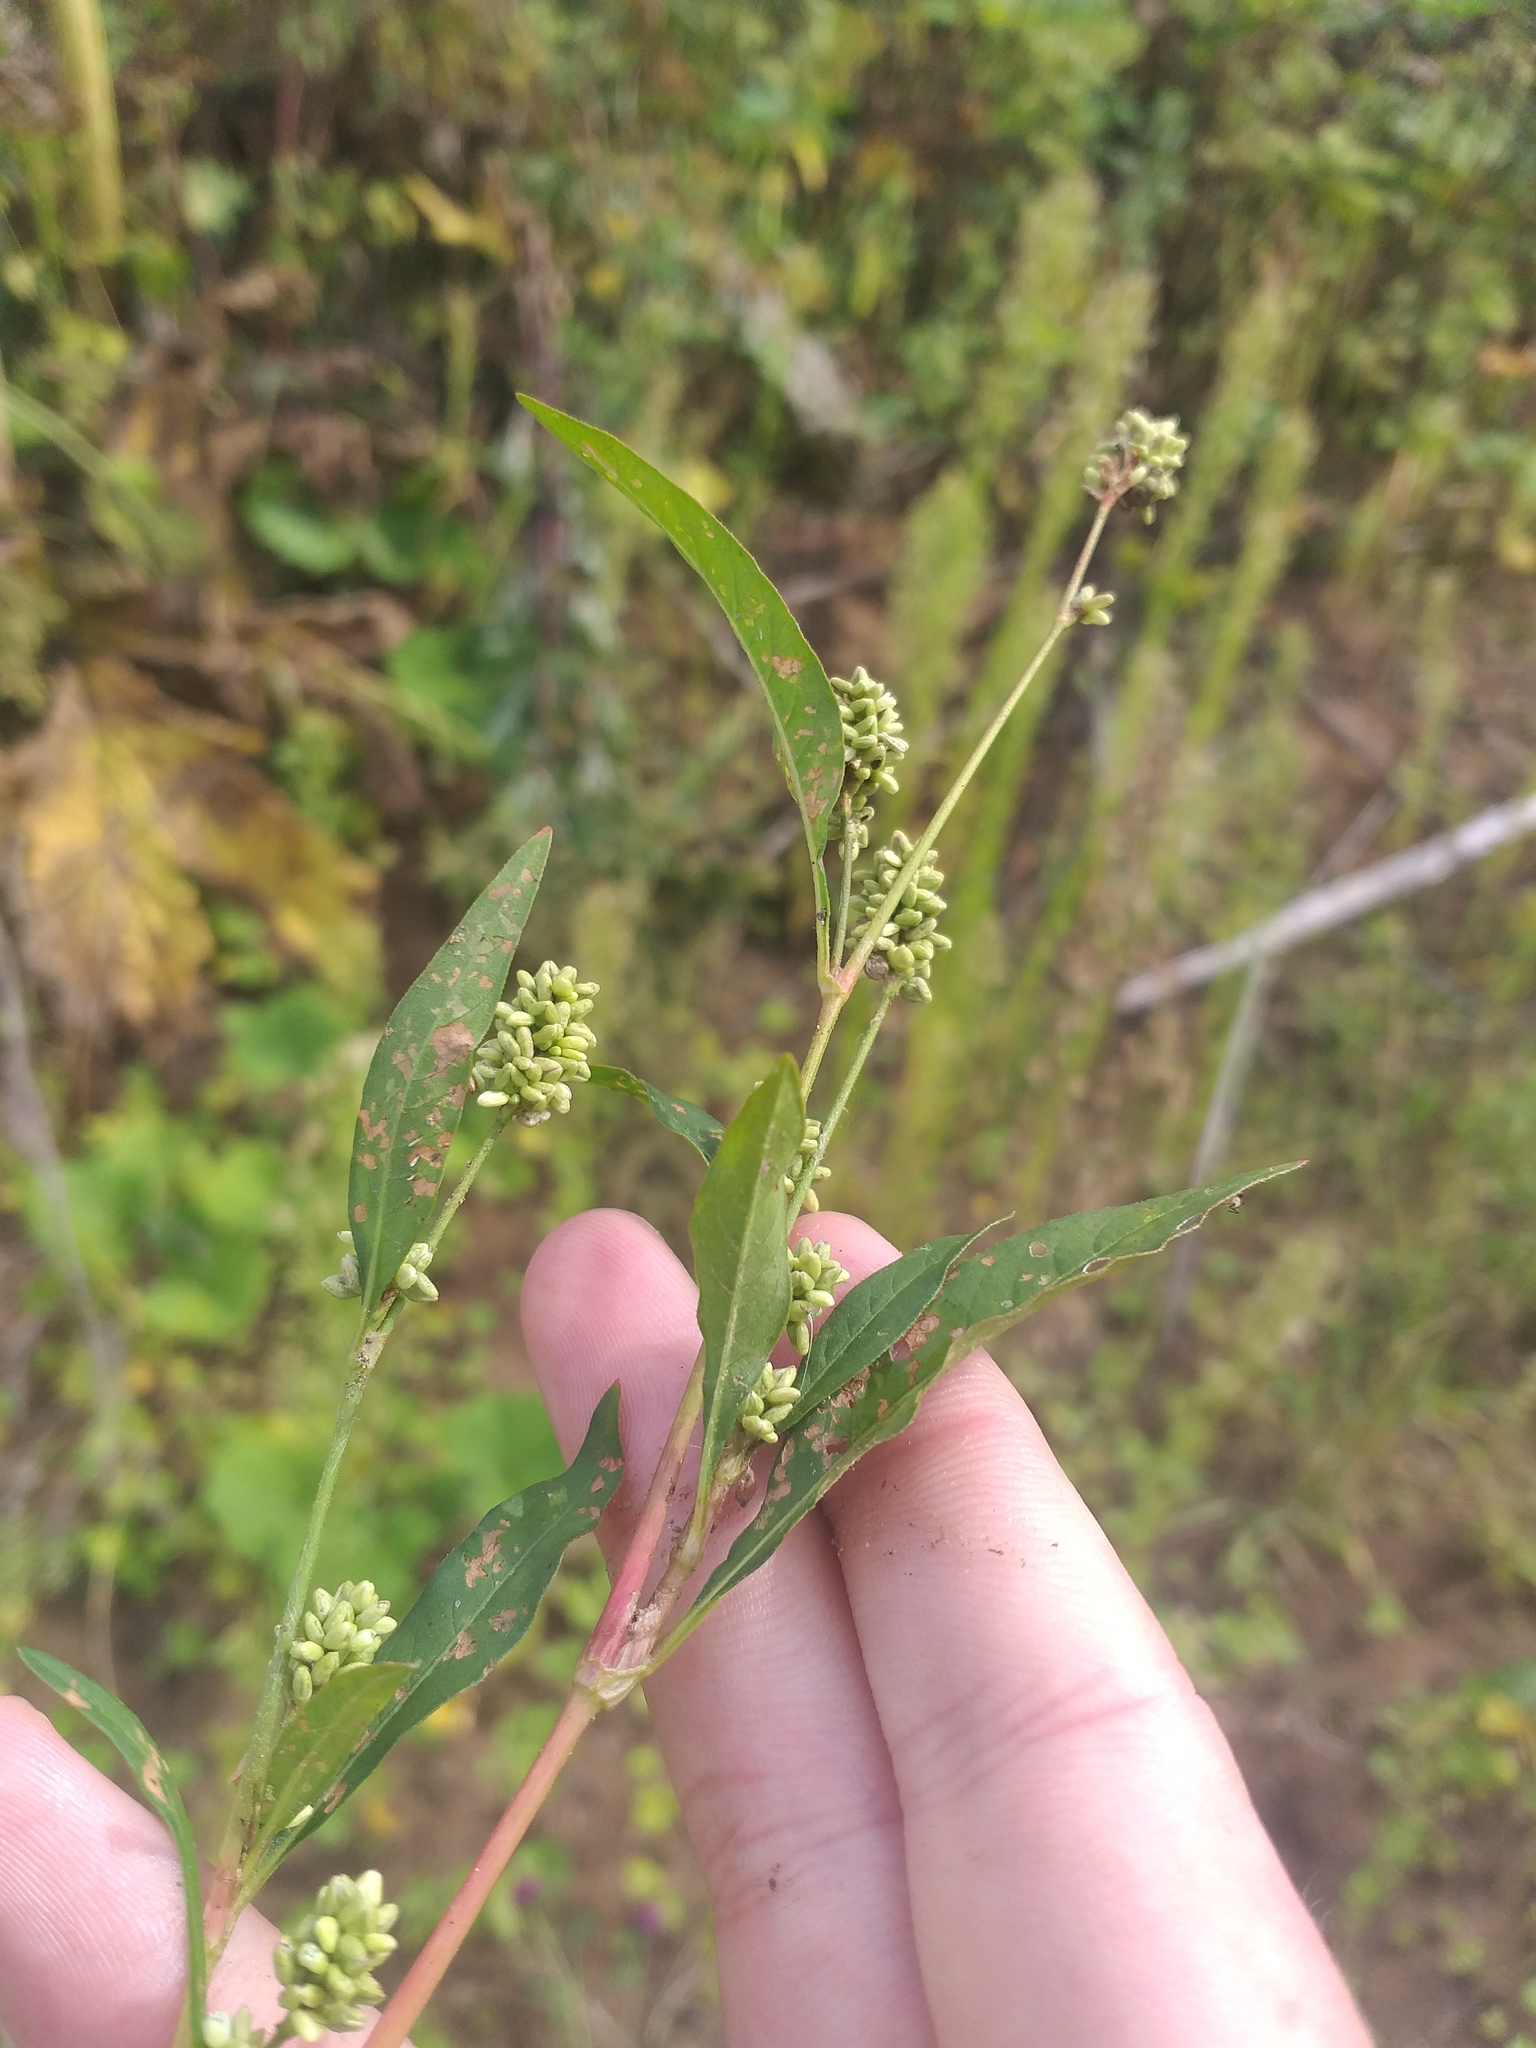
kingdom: Plantae
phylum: Tracheophyta
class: Magnoliopsida
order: Caryophyllales
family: Polygonaceae
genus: Persicaria
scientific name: Persicaria lapathifolia
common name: Curlytop knotweed
